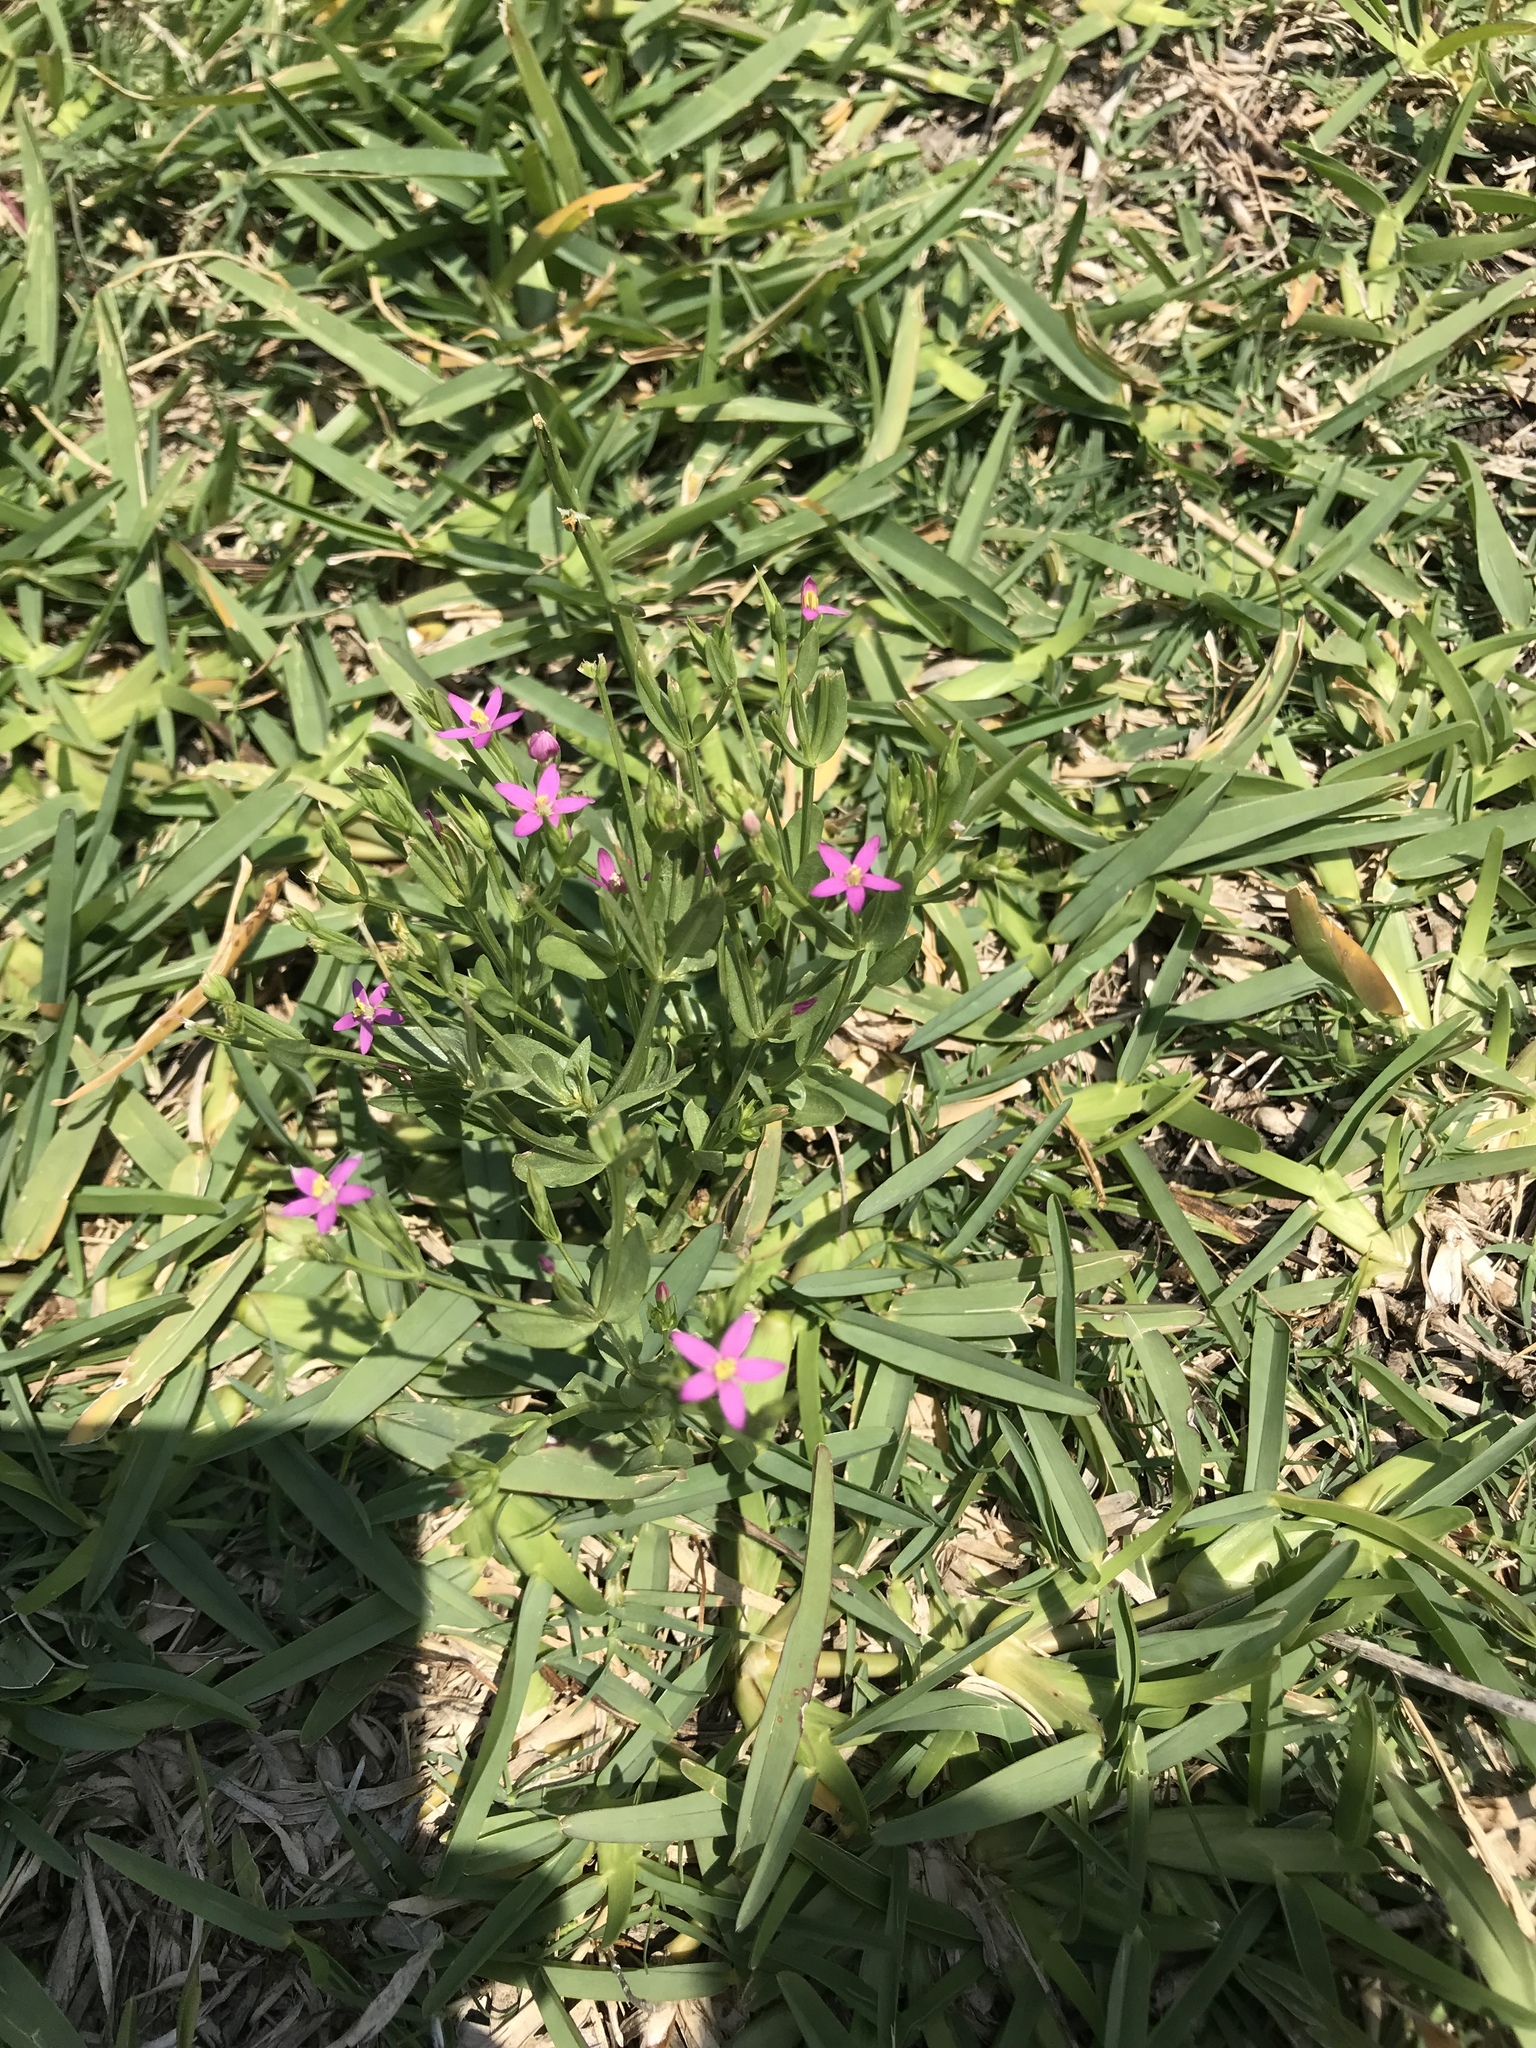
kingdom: Plantae
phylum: Tracheophyta
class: Magnoliopsida
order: Gentianales
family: Gentianaceae
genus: Centaurium
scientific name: Centaurium pulchellum
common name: Lesser centaury
